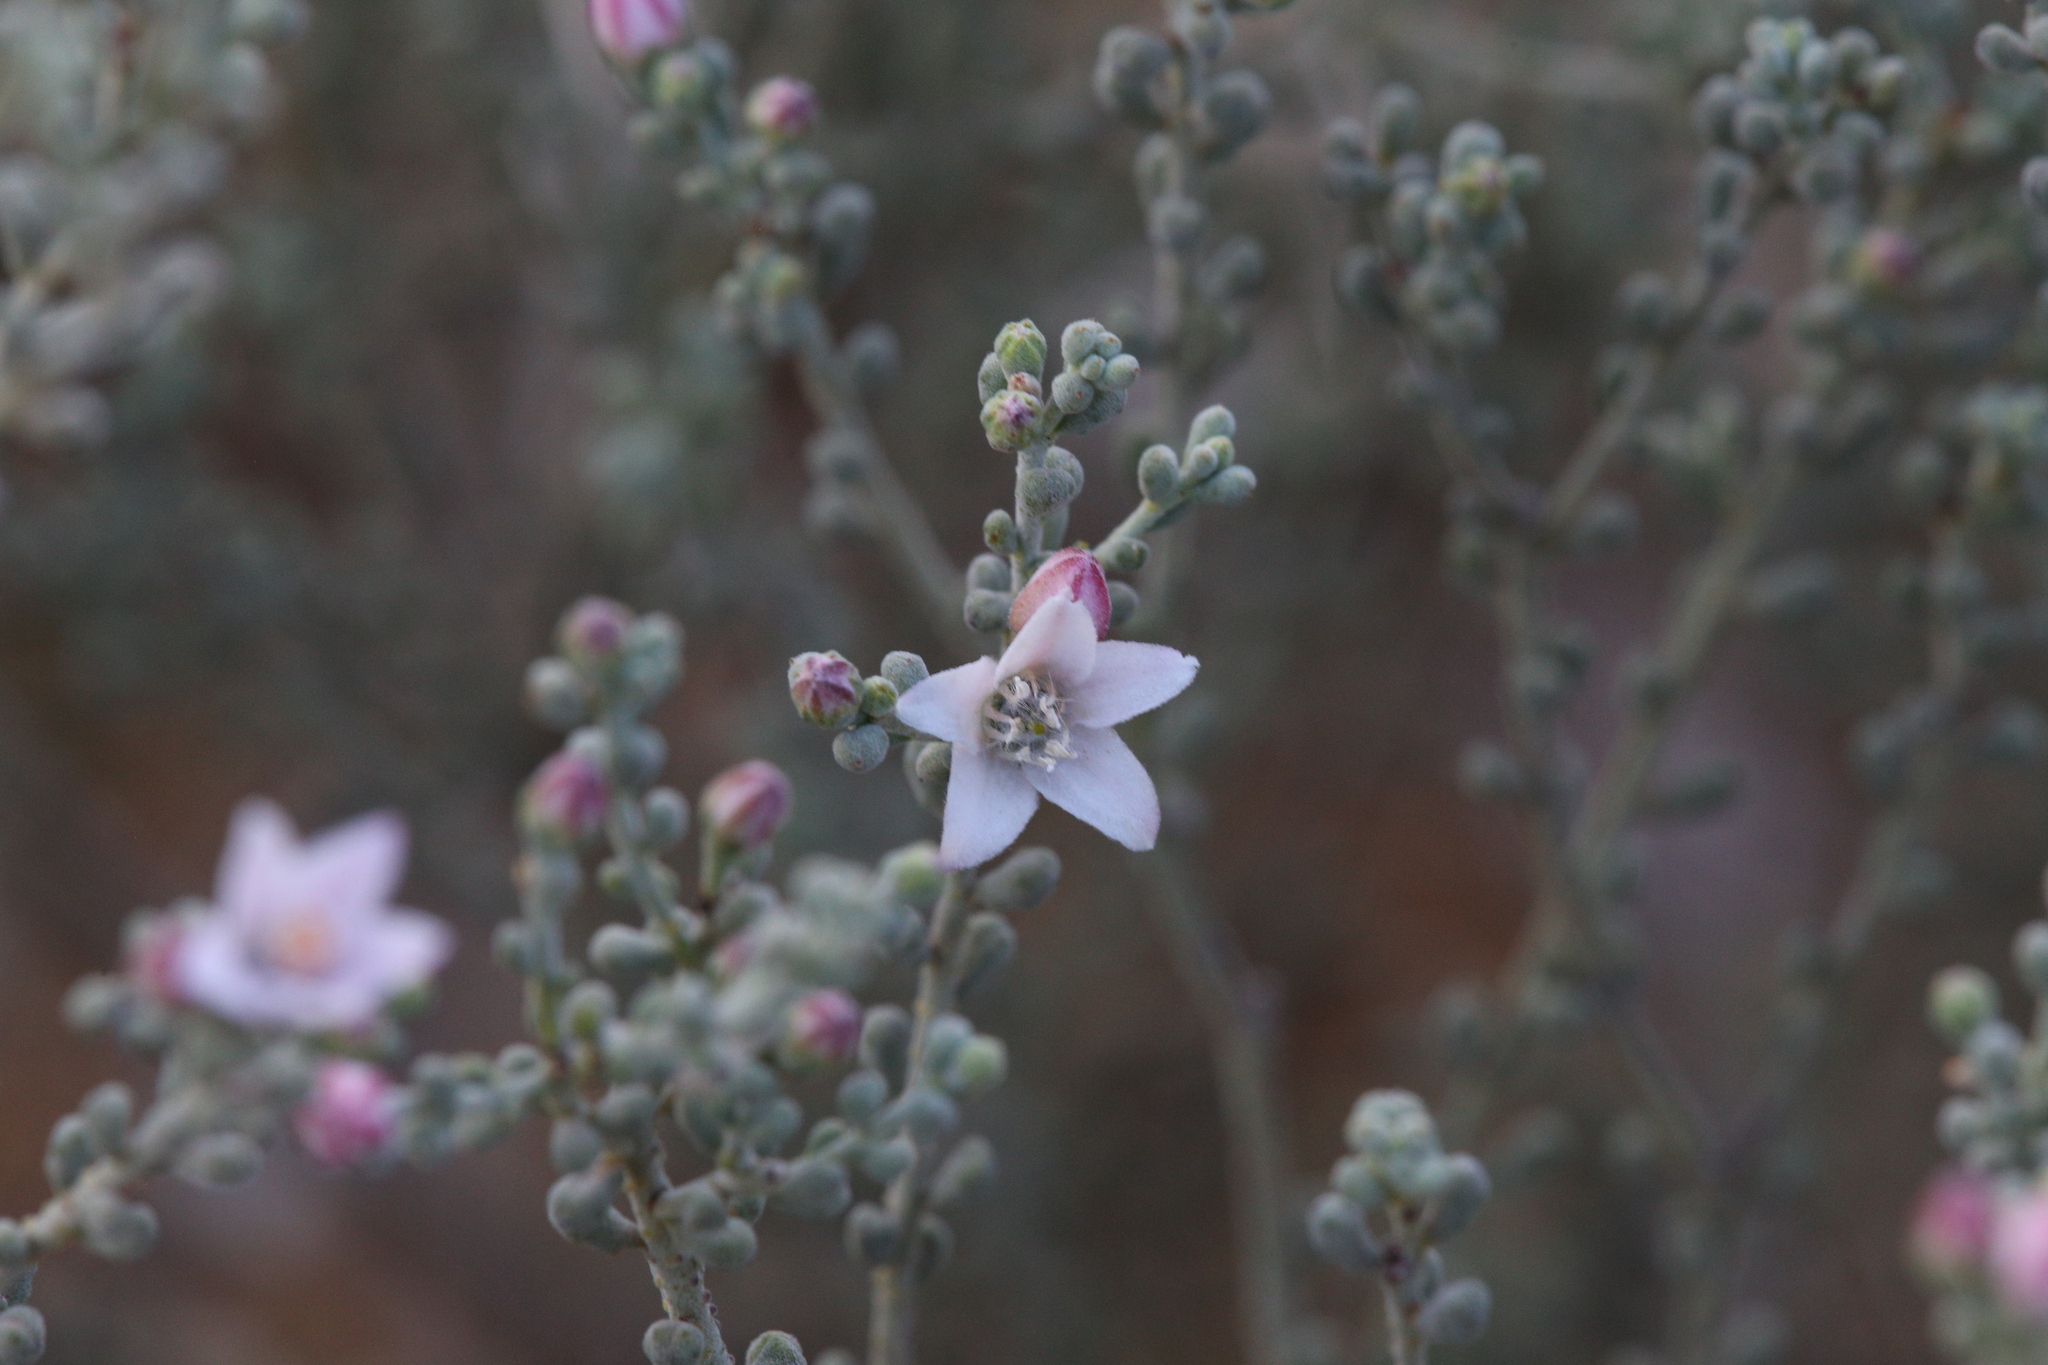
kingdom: Plantae
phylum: Tracheophyta
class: Magnoliopsida
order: Sapindales
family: Rutaceae
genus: Philotheca
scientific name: Philotheca tomentella
